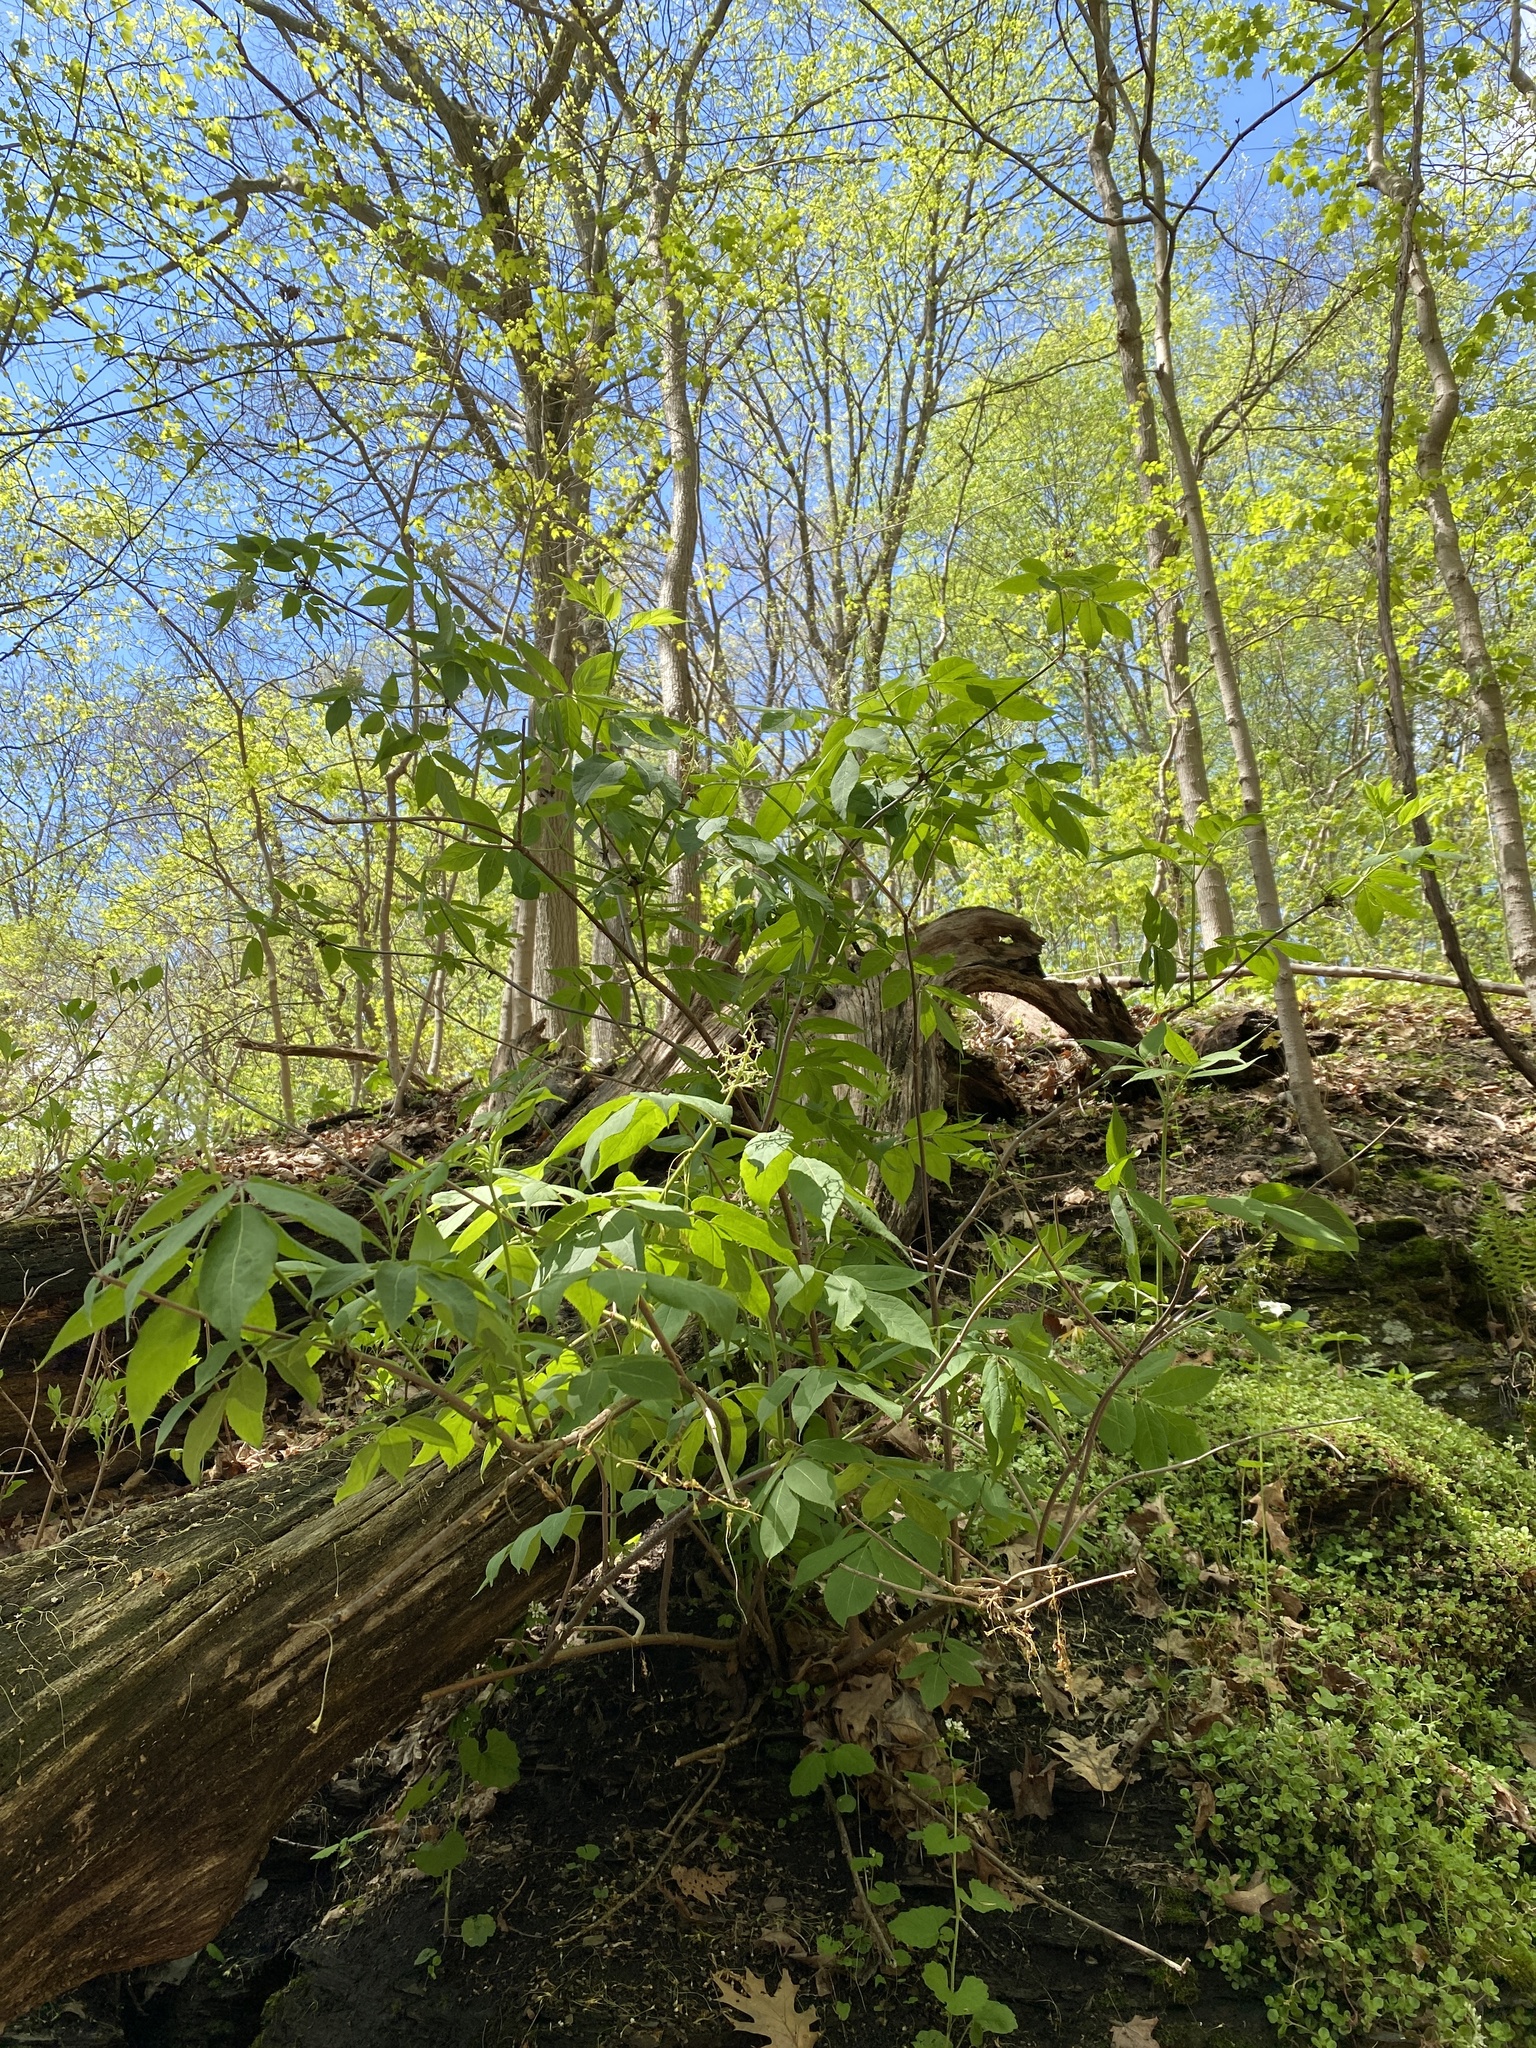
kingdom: Plantae
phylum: Tracheophyta
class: Magnoliopsida
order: Dipsacales
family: Viburnaceae
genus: Sambucus
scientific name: Sambucus racemosa
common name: Red-berried elder
